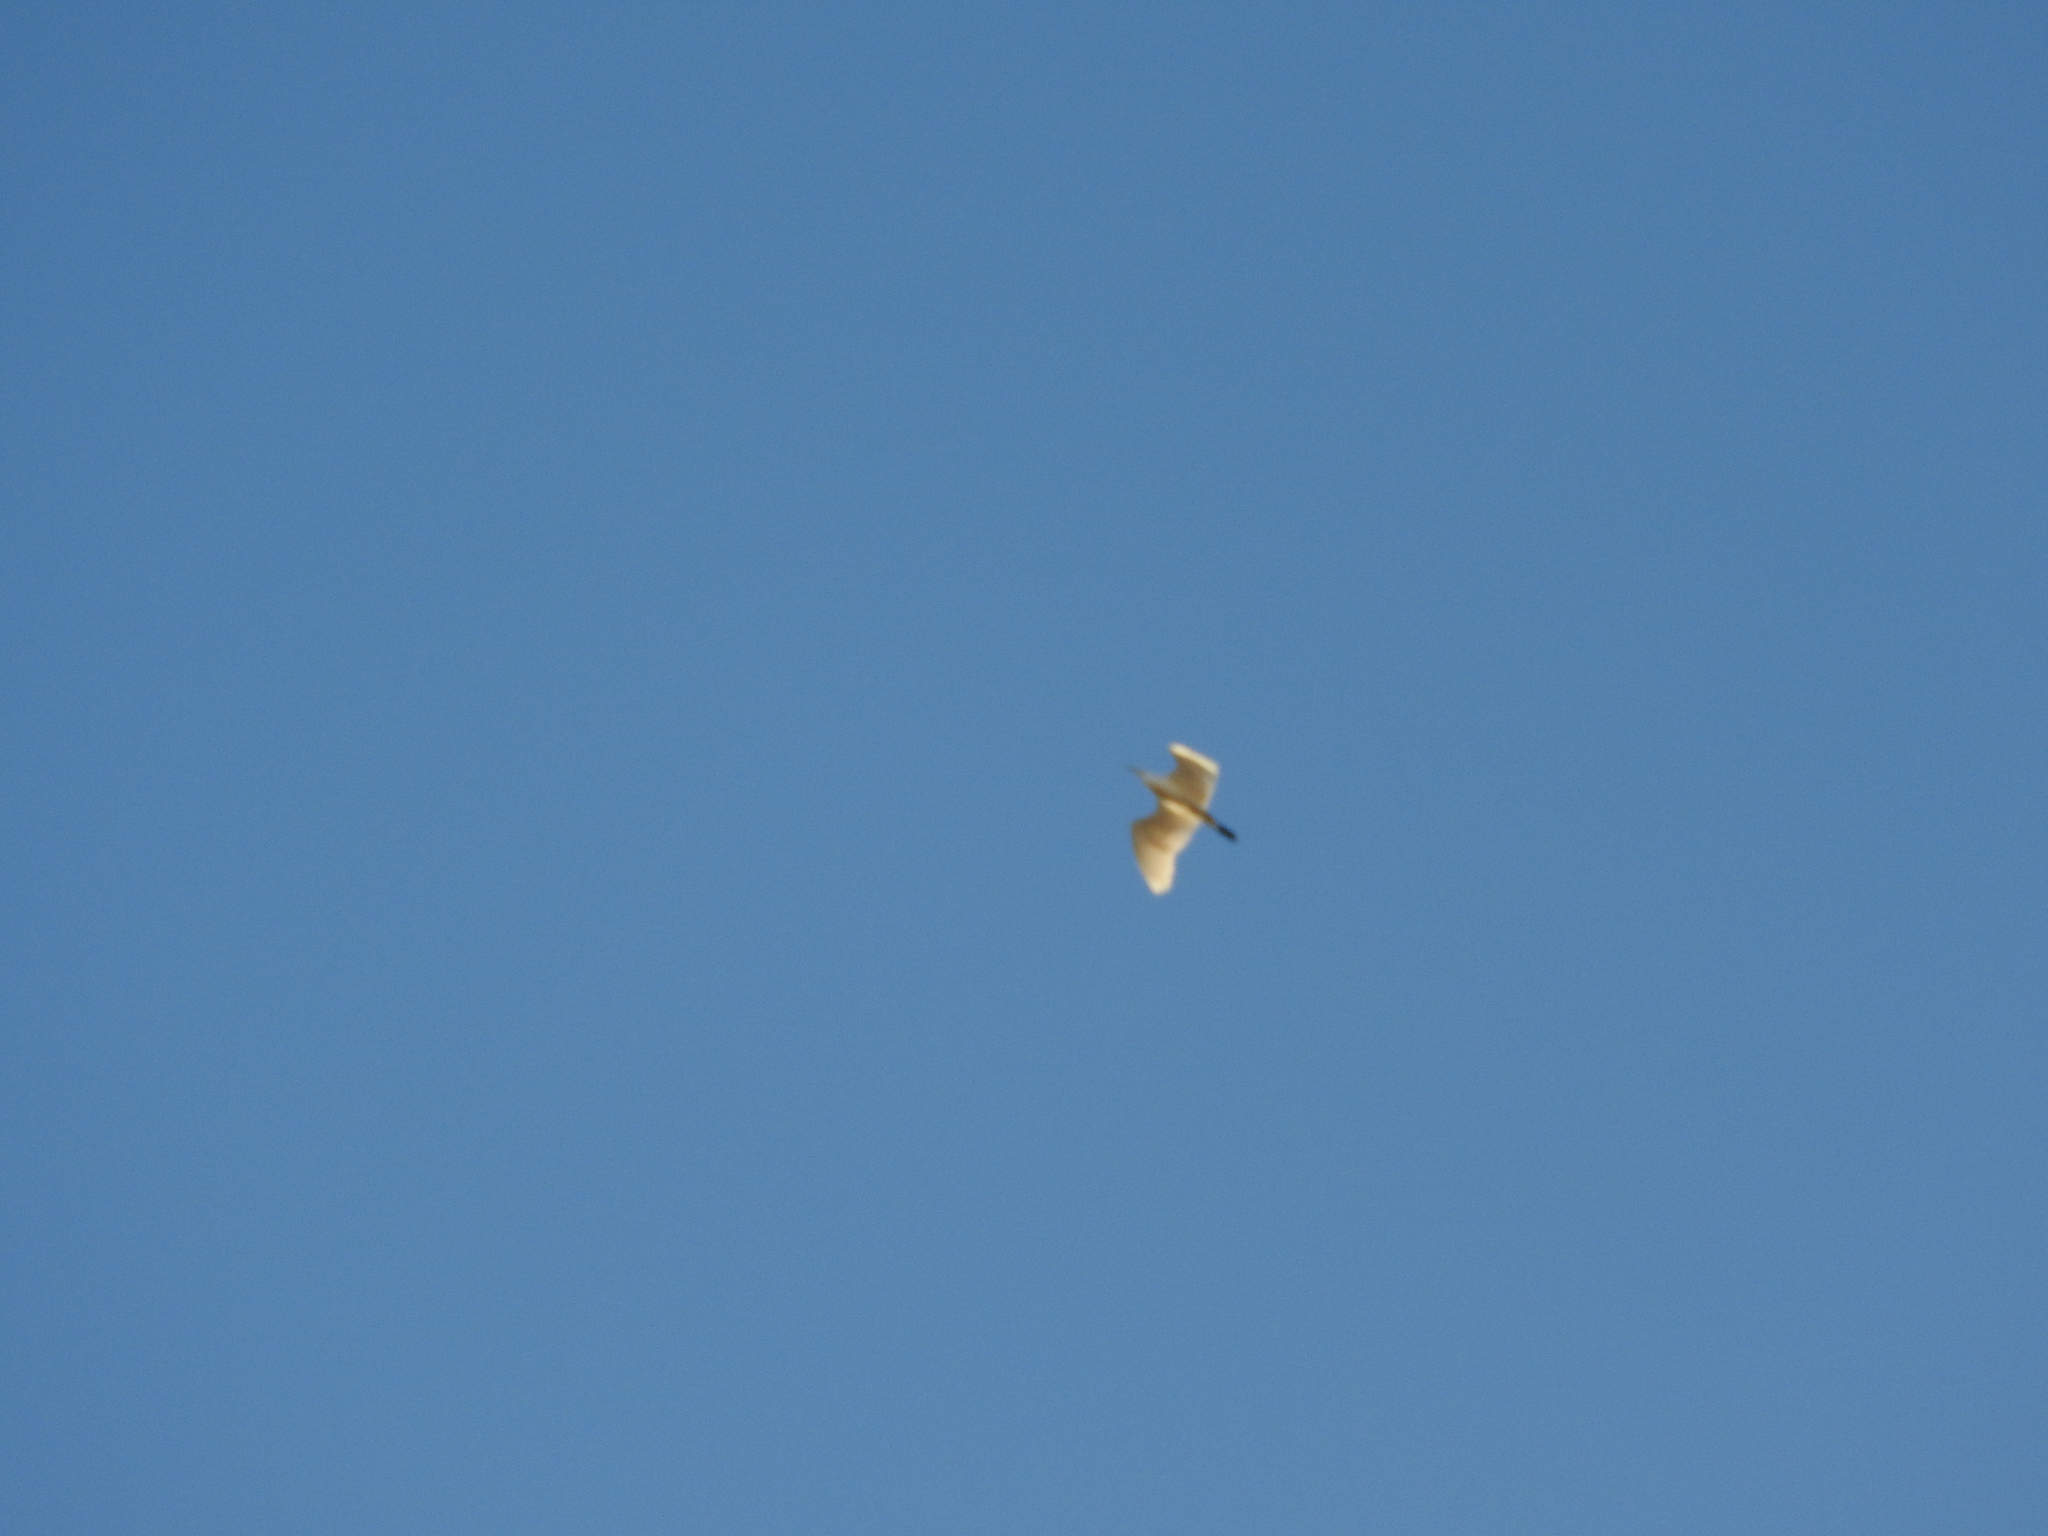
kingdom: Animalia
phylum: Chordata
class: Aves
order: Pelecaniformes
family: Ardeidae
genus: Bubulcus
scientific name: Bubulcus ibis
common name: Cattle egret
